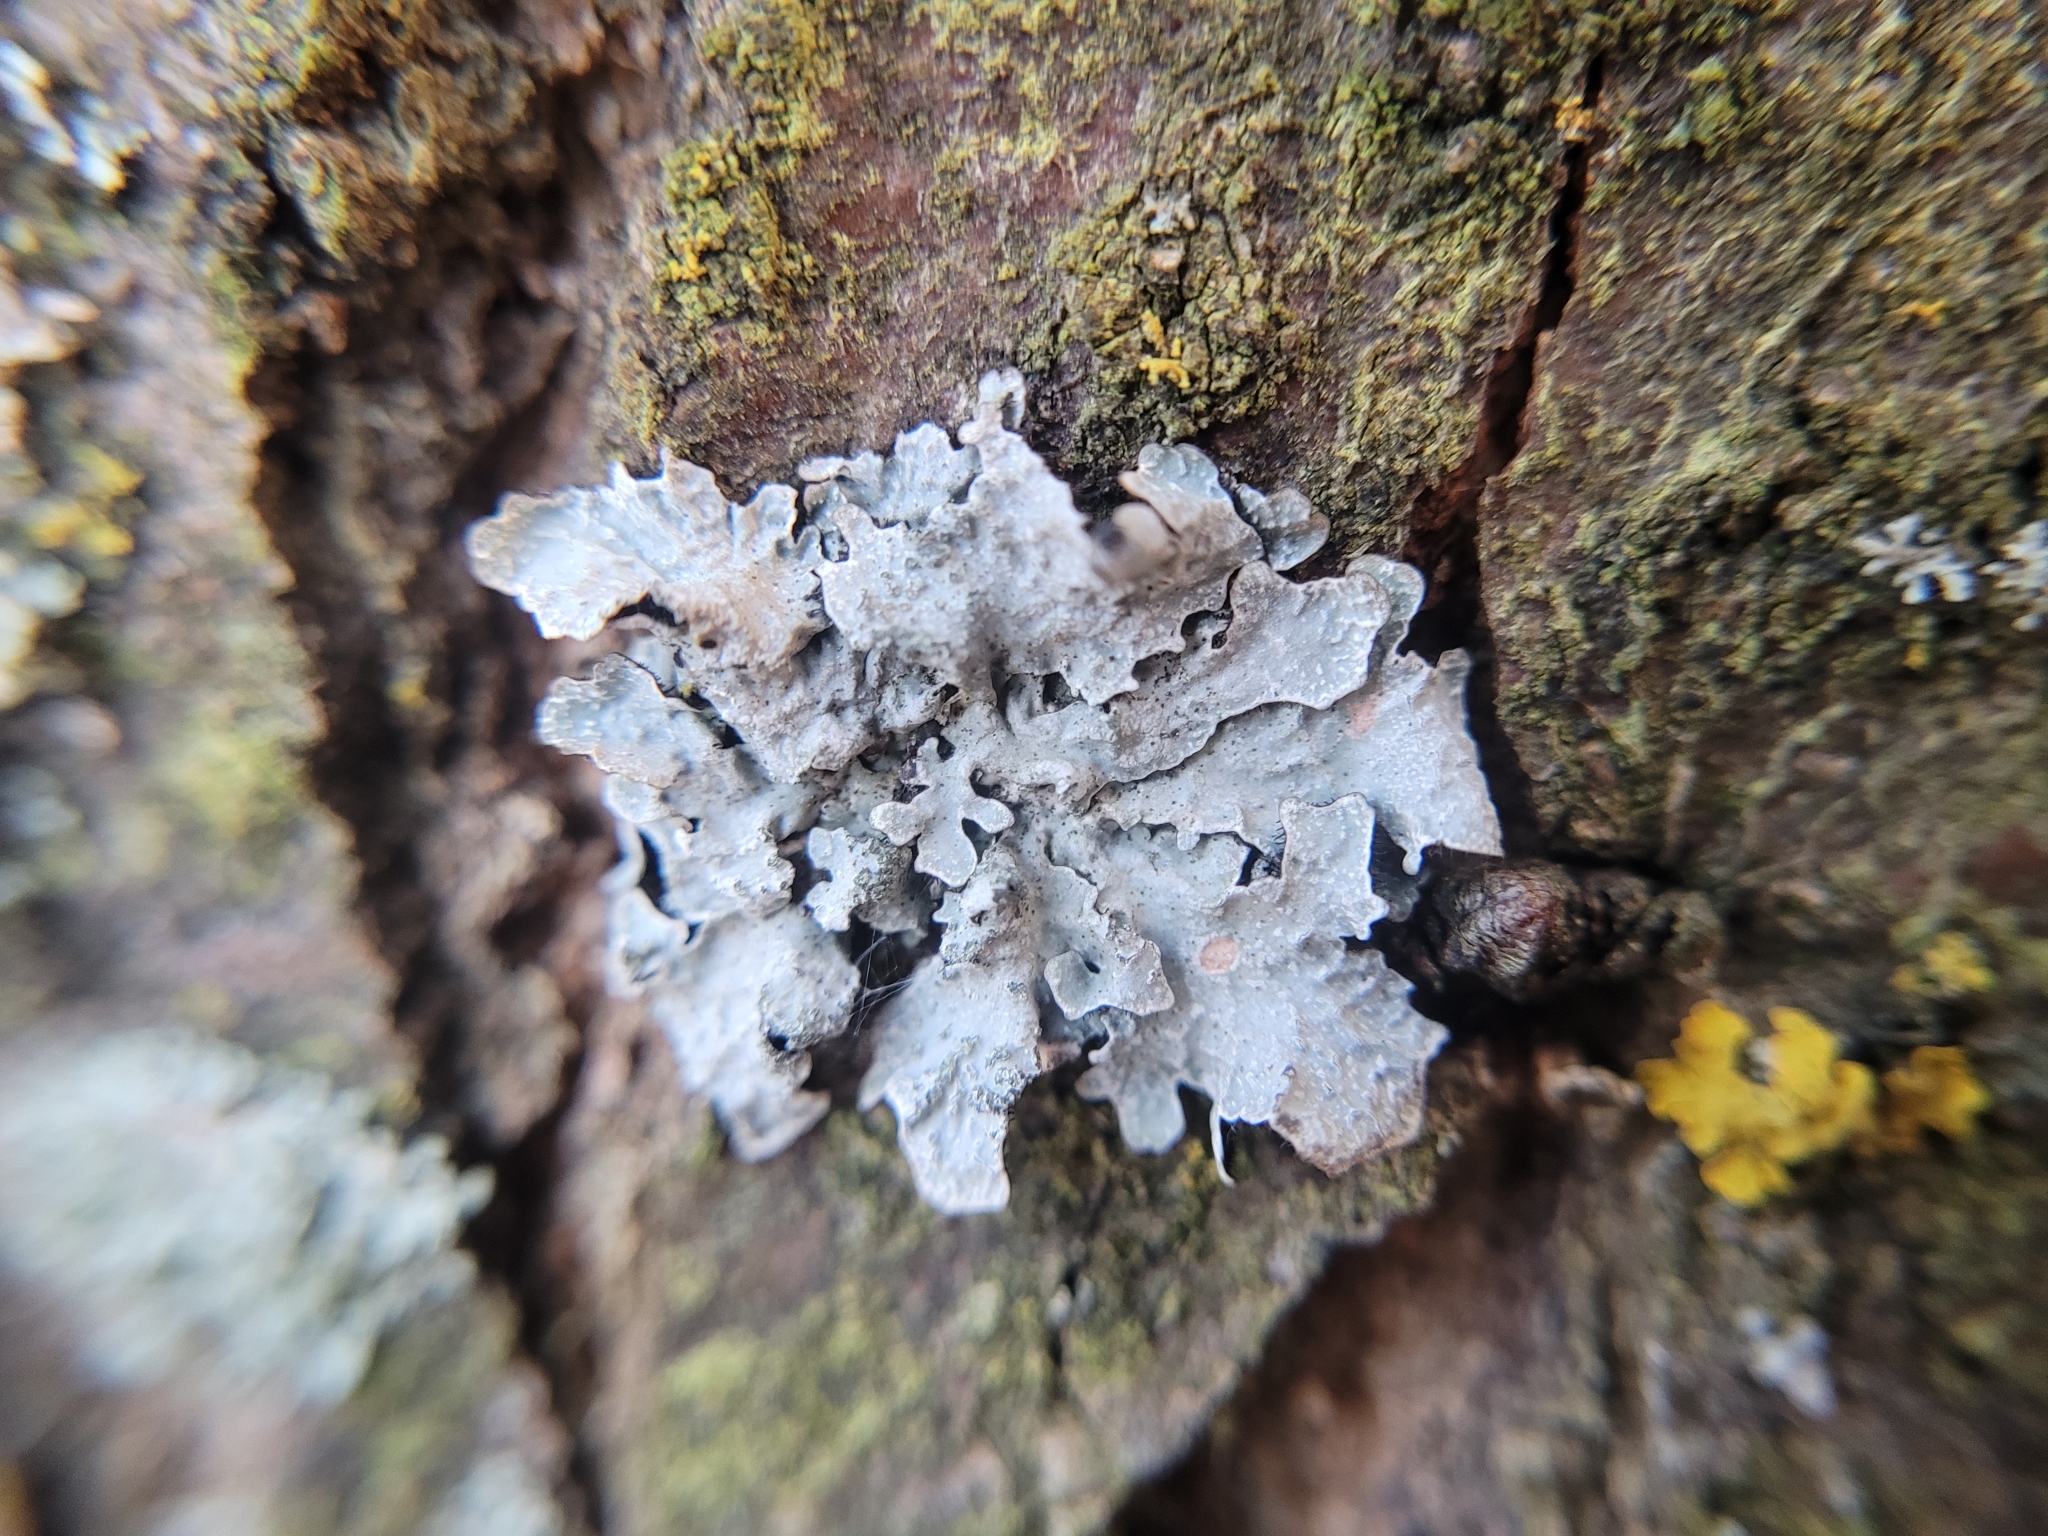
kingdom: Fungi
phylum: Ascomycota
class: Lecanoromycetes
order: Lecanorales
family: Parmeliaceae
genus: Parmelia
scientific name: Parmelia sulcata
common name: Netted shield lichen
